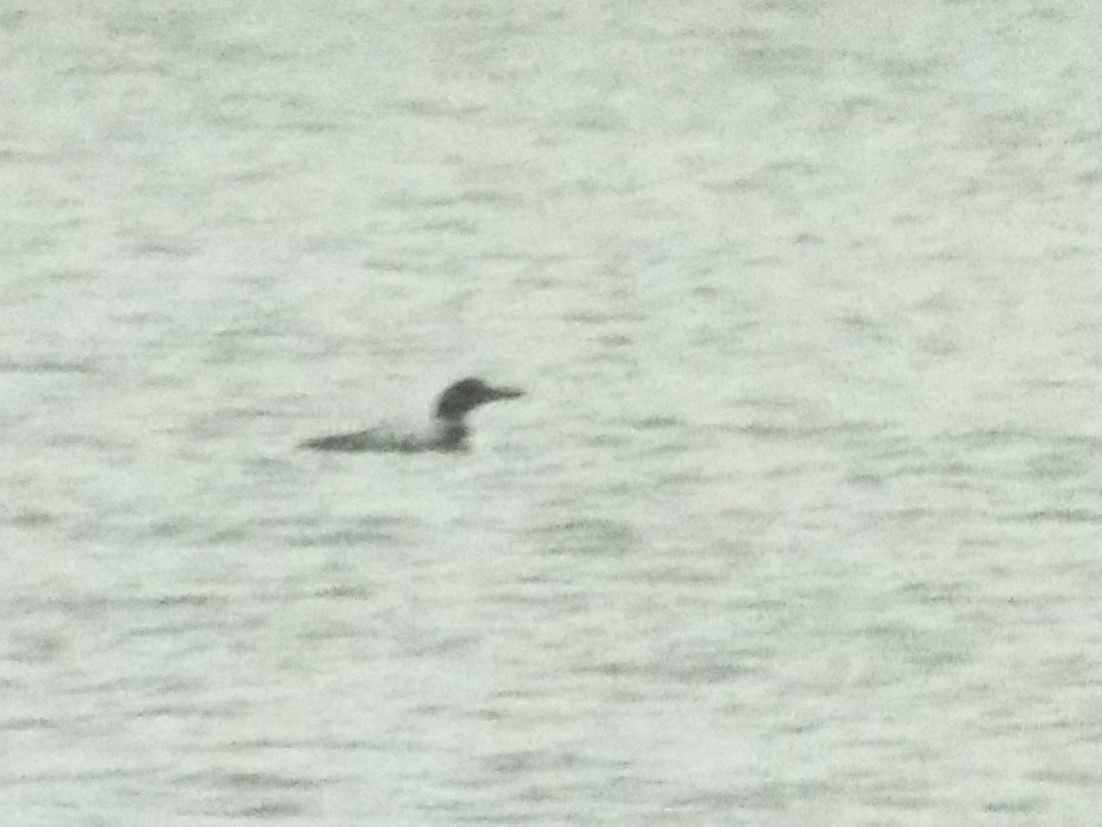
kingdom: Animalia
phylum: Chordata
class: Aves
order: Gaviiformes
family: Gaviidae
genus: Gavia
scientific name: Gavia immer
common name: Common loon
